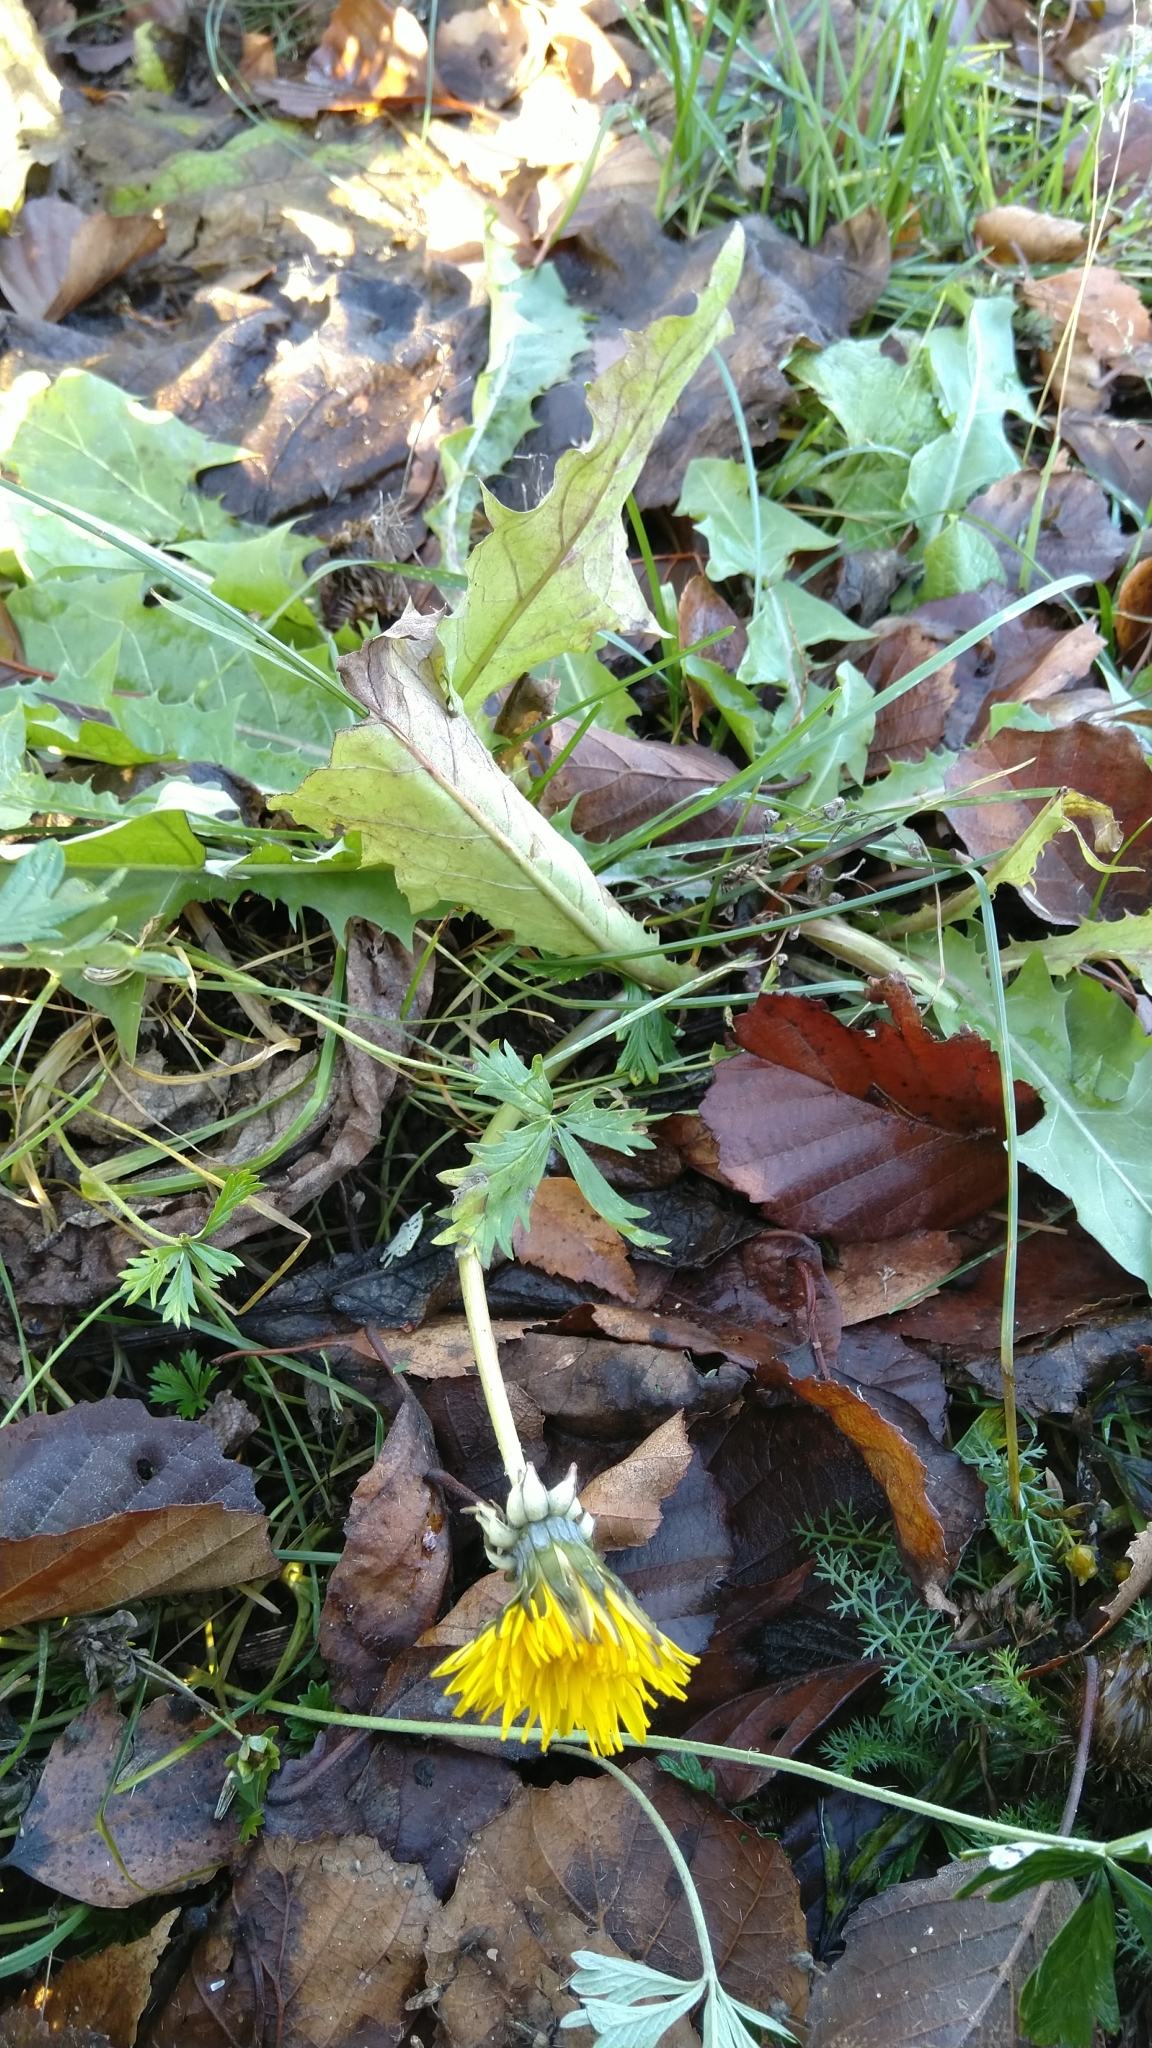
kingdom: Plantae
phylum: Tracheophyta
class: Magnoliopsida
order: Asterales
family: Asteraceae
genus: Taraxacum
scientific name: Taraxacum
